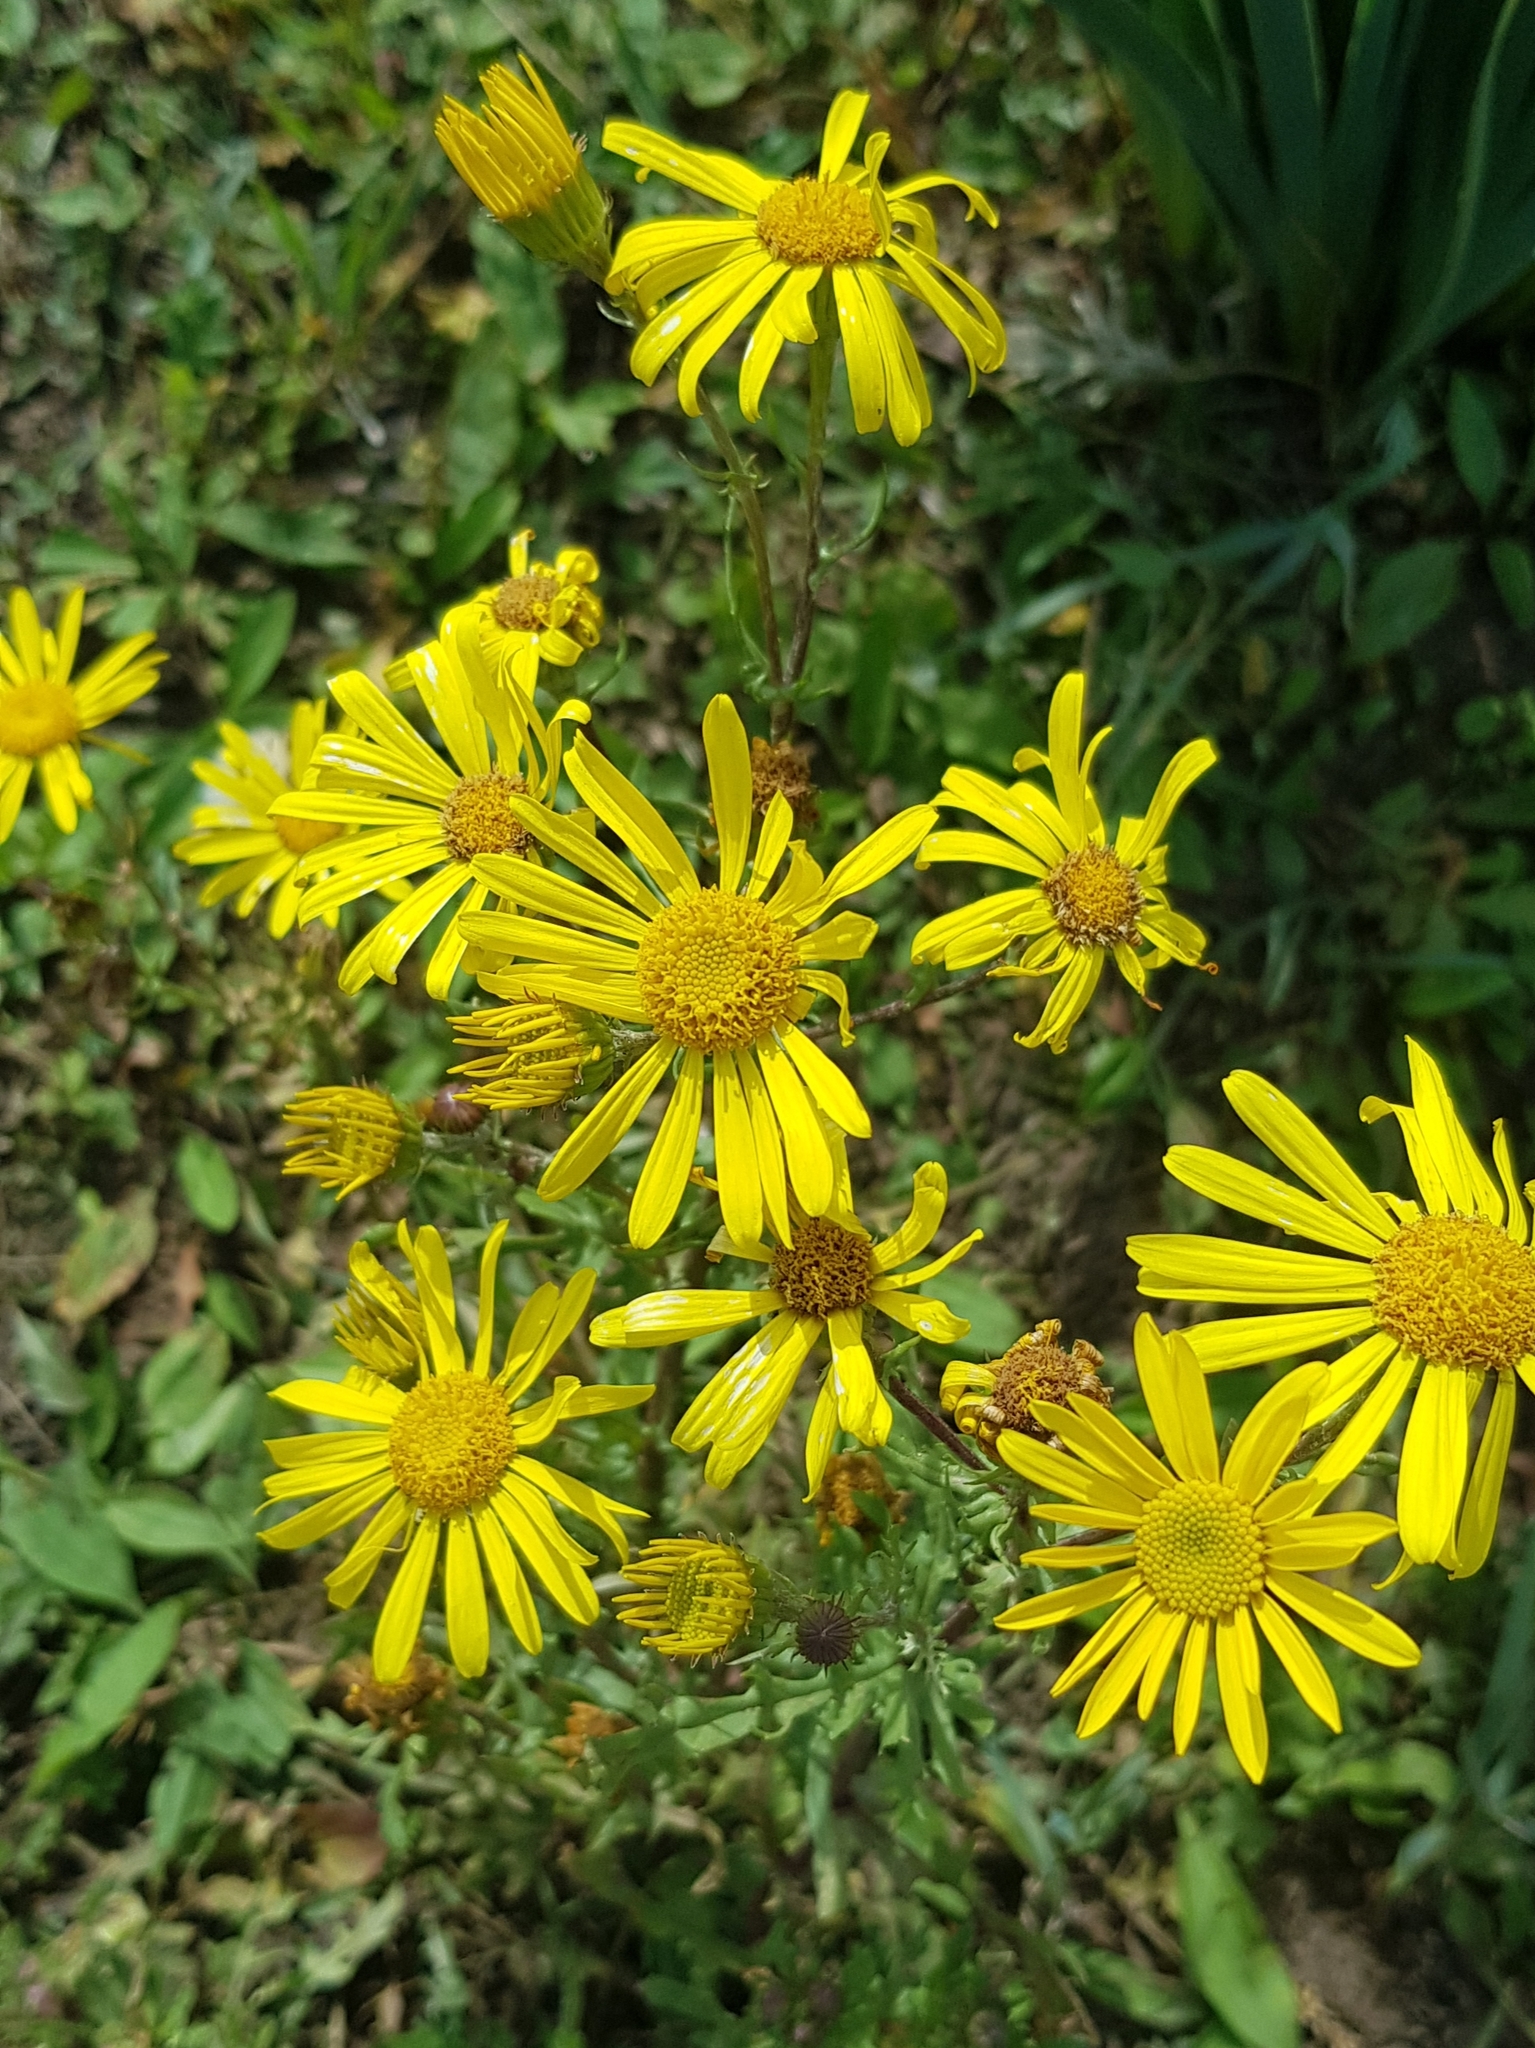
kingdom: Plantae
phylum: Tracheophyta
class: Magnoliopsida
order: Asterales
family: Asteraceae
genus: Pentanema
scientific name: Pentanema britannicum
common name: British elecampane
